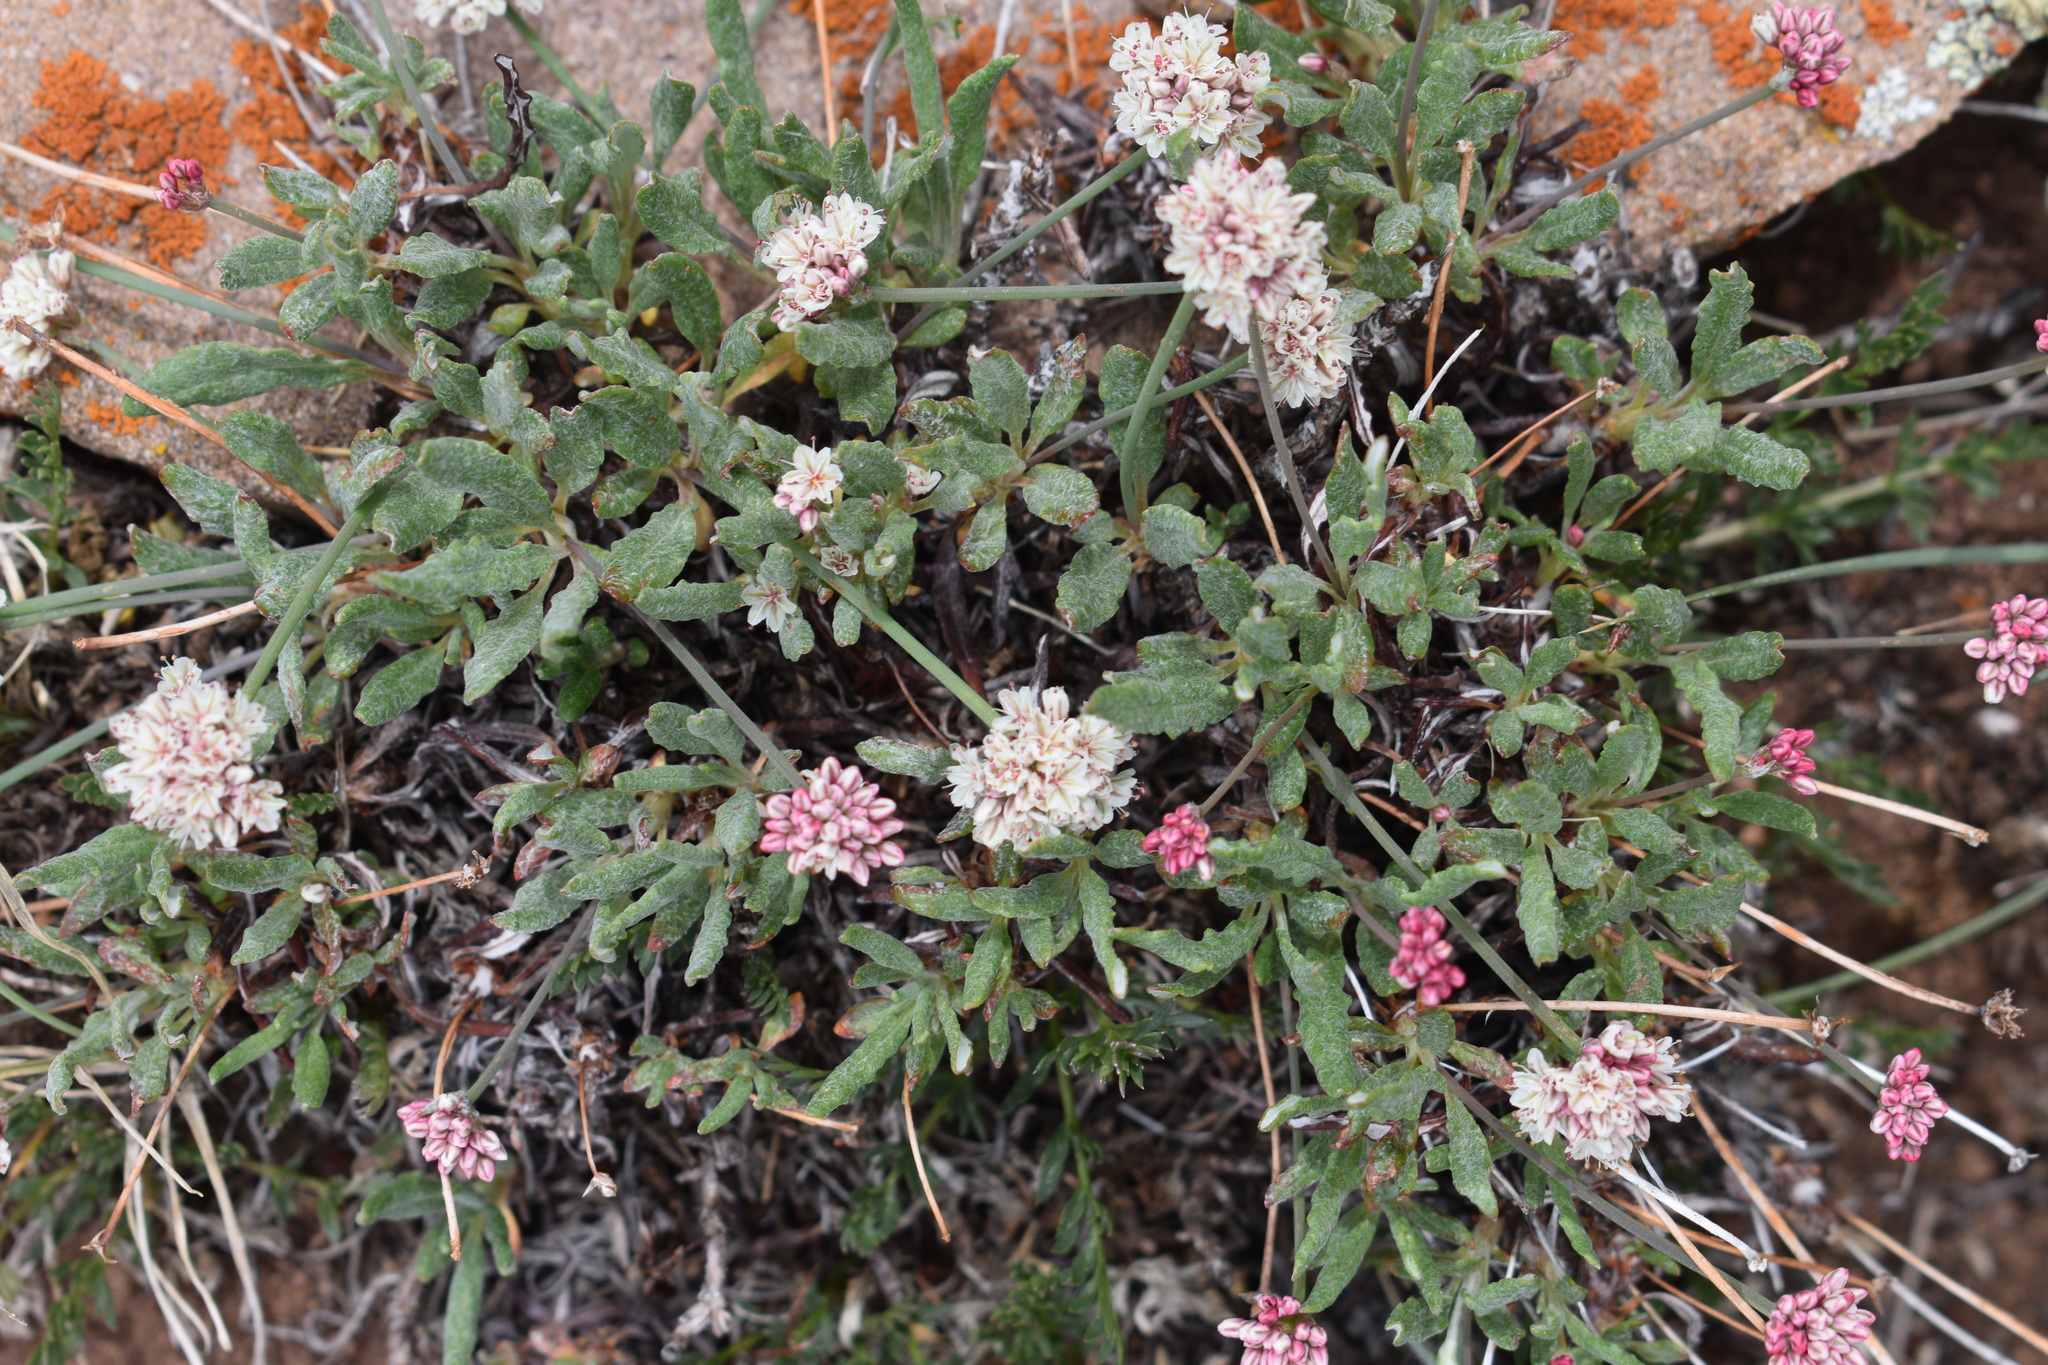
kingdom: Plantae
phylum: Tracheophyta
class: Magnoliopsida
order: Caryophyllales
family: Polygonaceae
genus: Eriogonum
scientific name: Eriogonum coloradense
